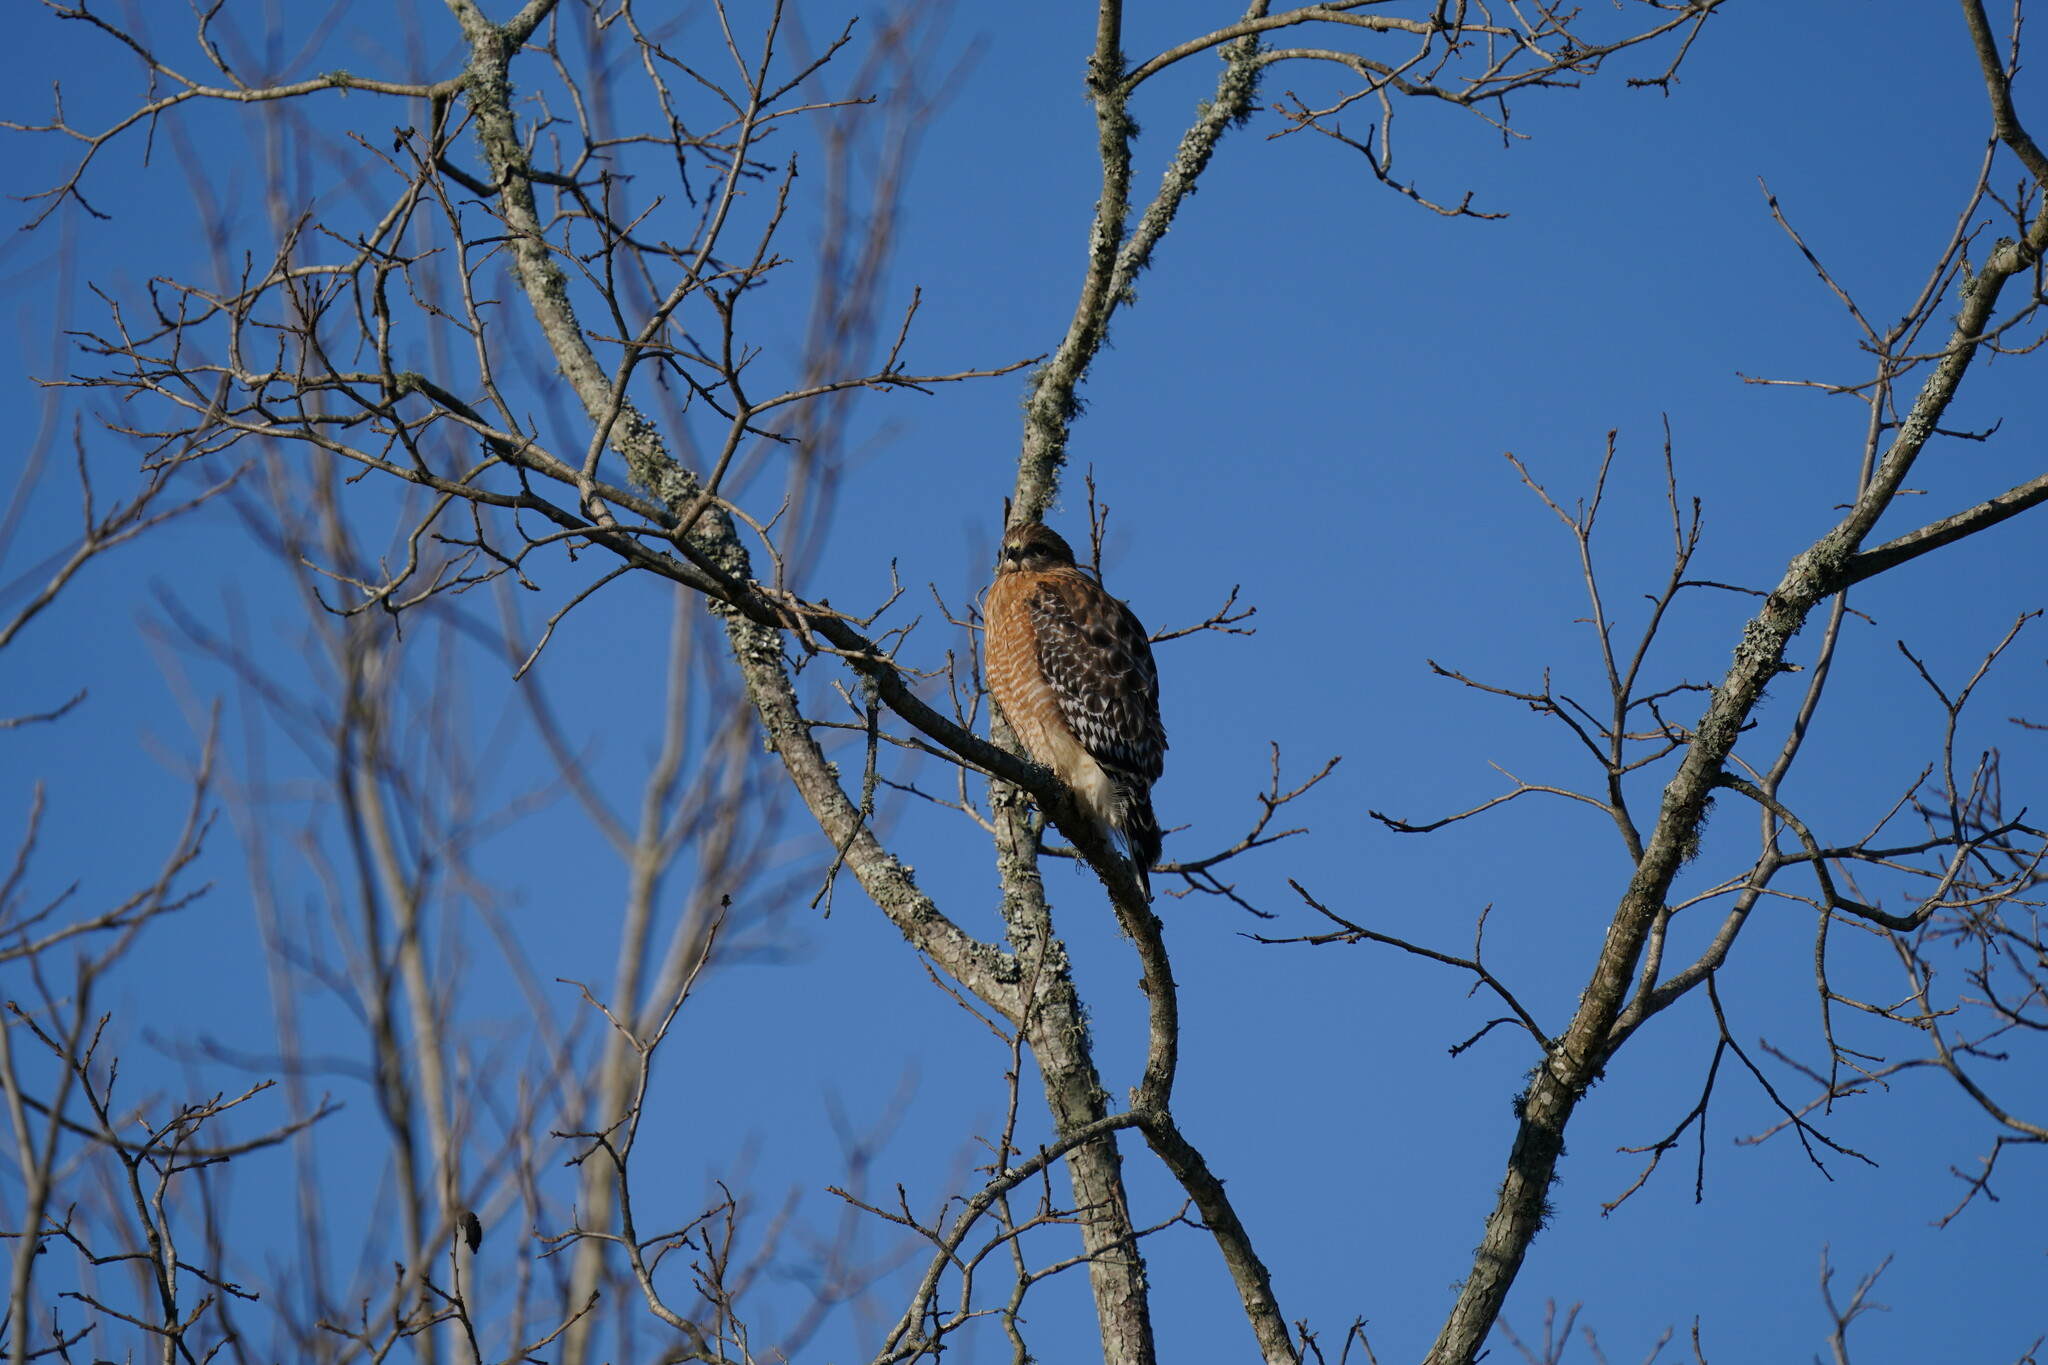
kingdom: Animalia
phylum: Chordata
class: Aves
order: Accipitriformes
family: Accipitridae
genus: Buteo
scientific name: Buteo lineatus
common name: Red-shouldered hawk
